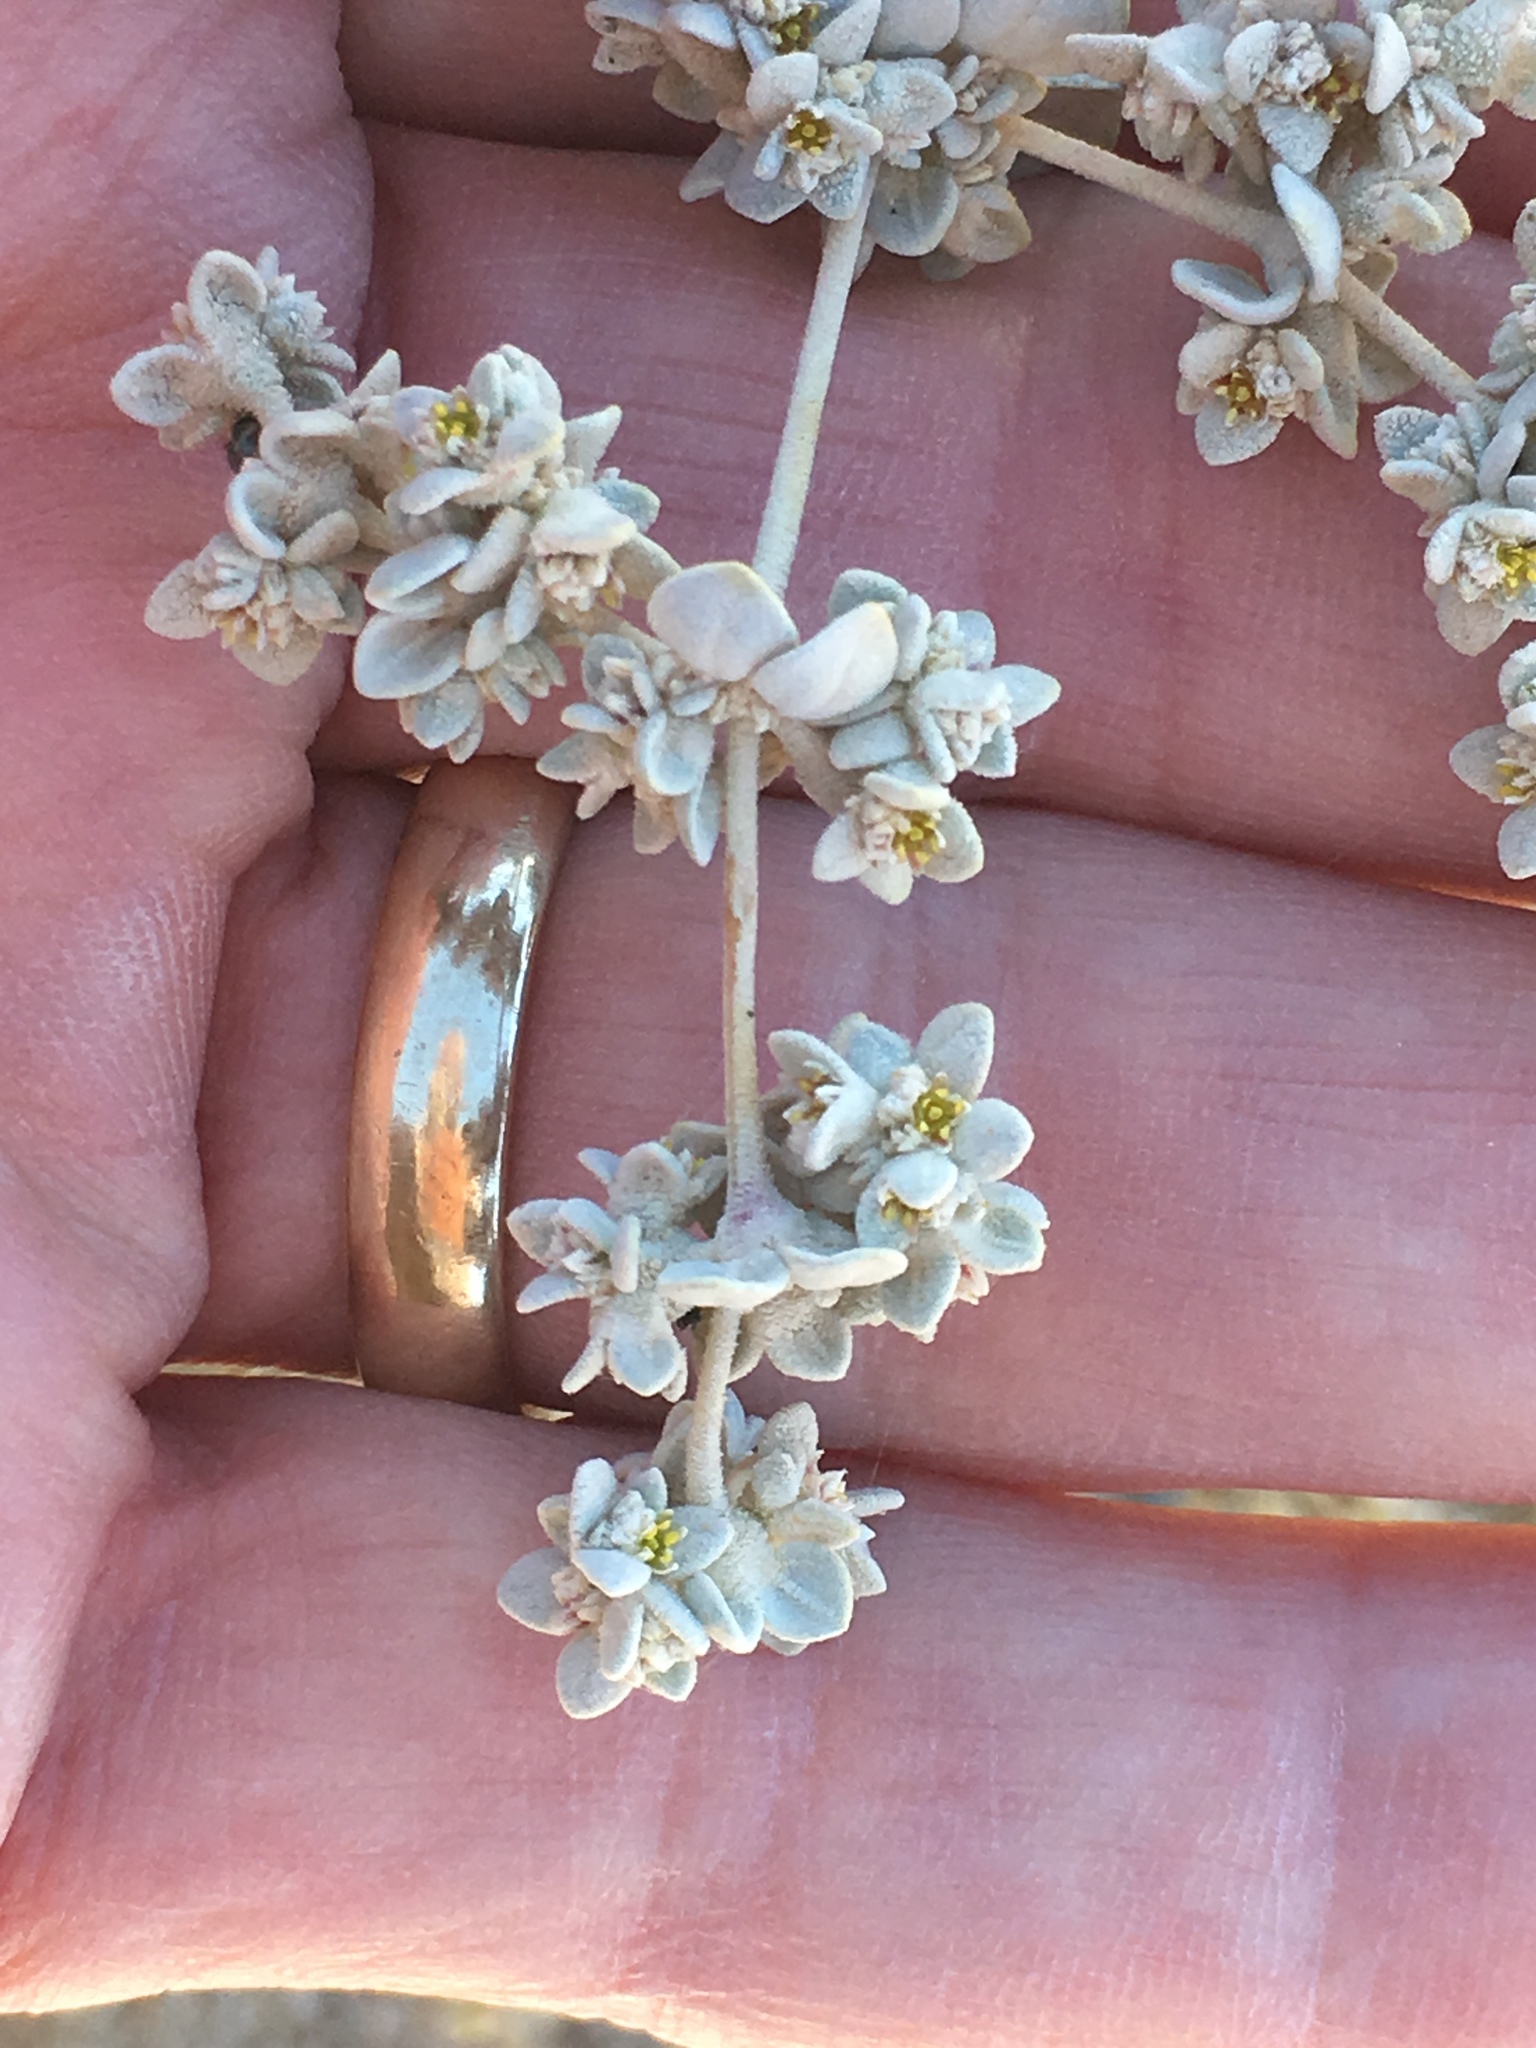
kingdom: Plantae
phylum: Tracheophyta
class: Magnoliopsida
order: Caryophyllales
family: Amaranthaceae
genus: Tidestromia
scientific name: Tidestromia suffruticosa
